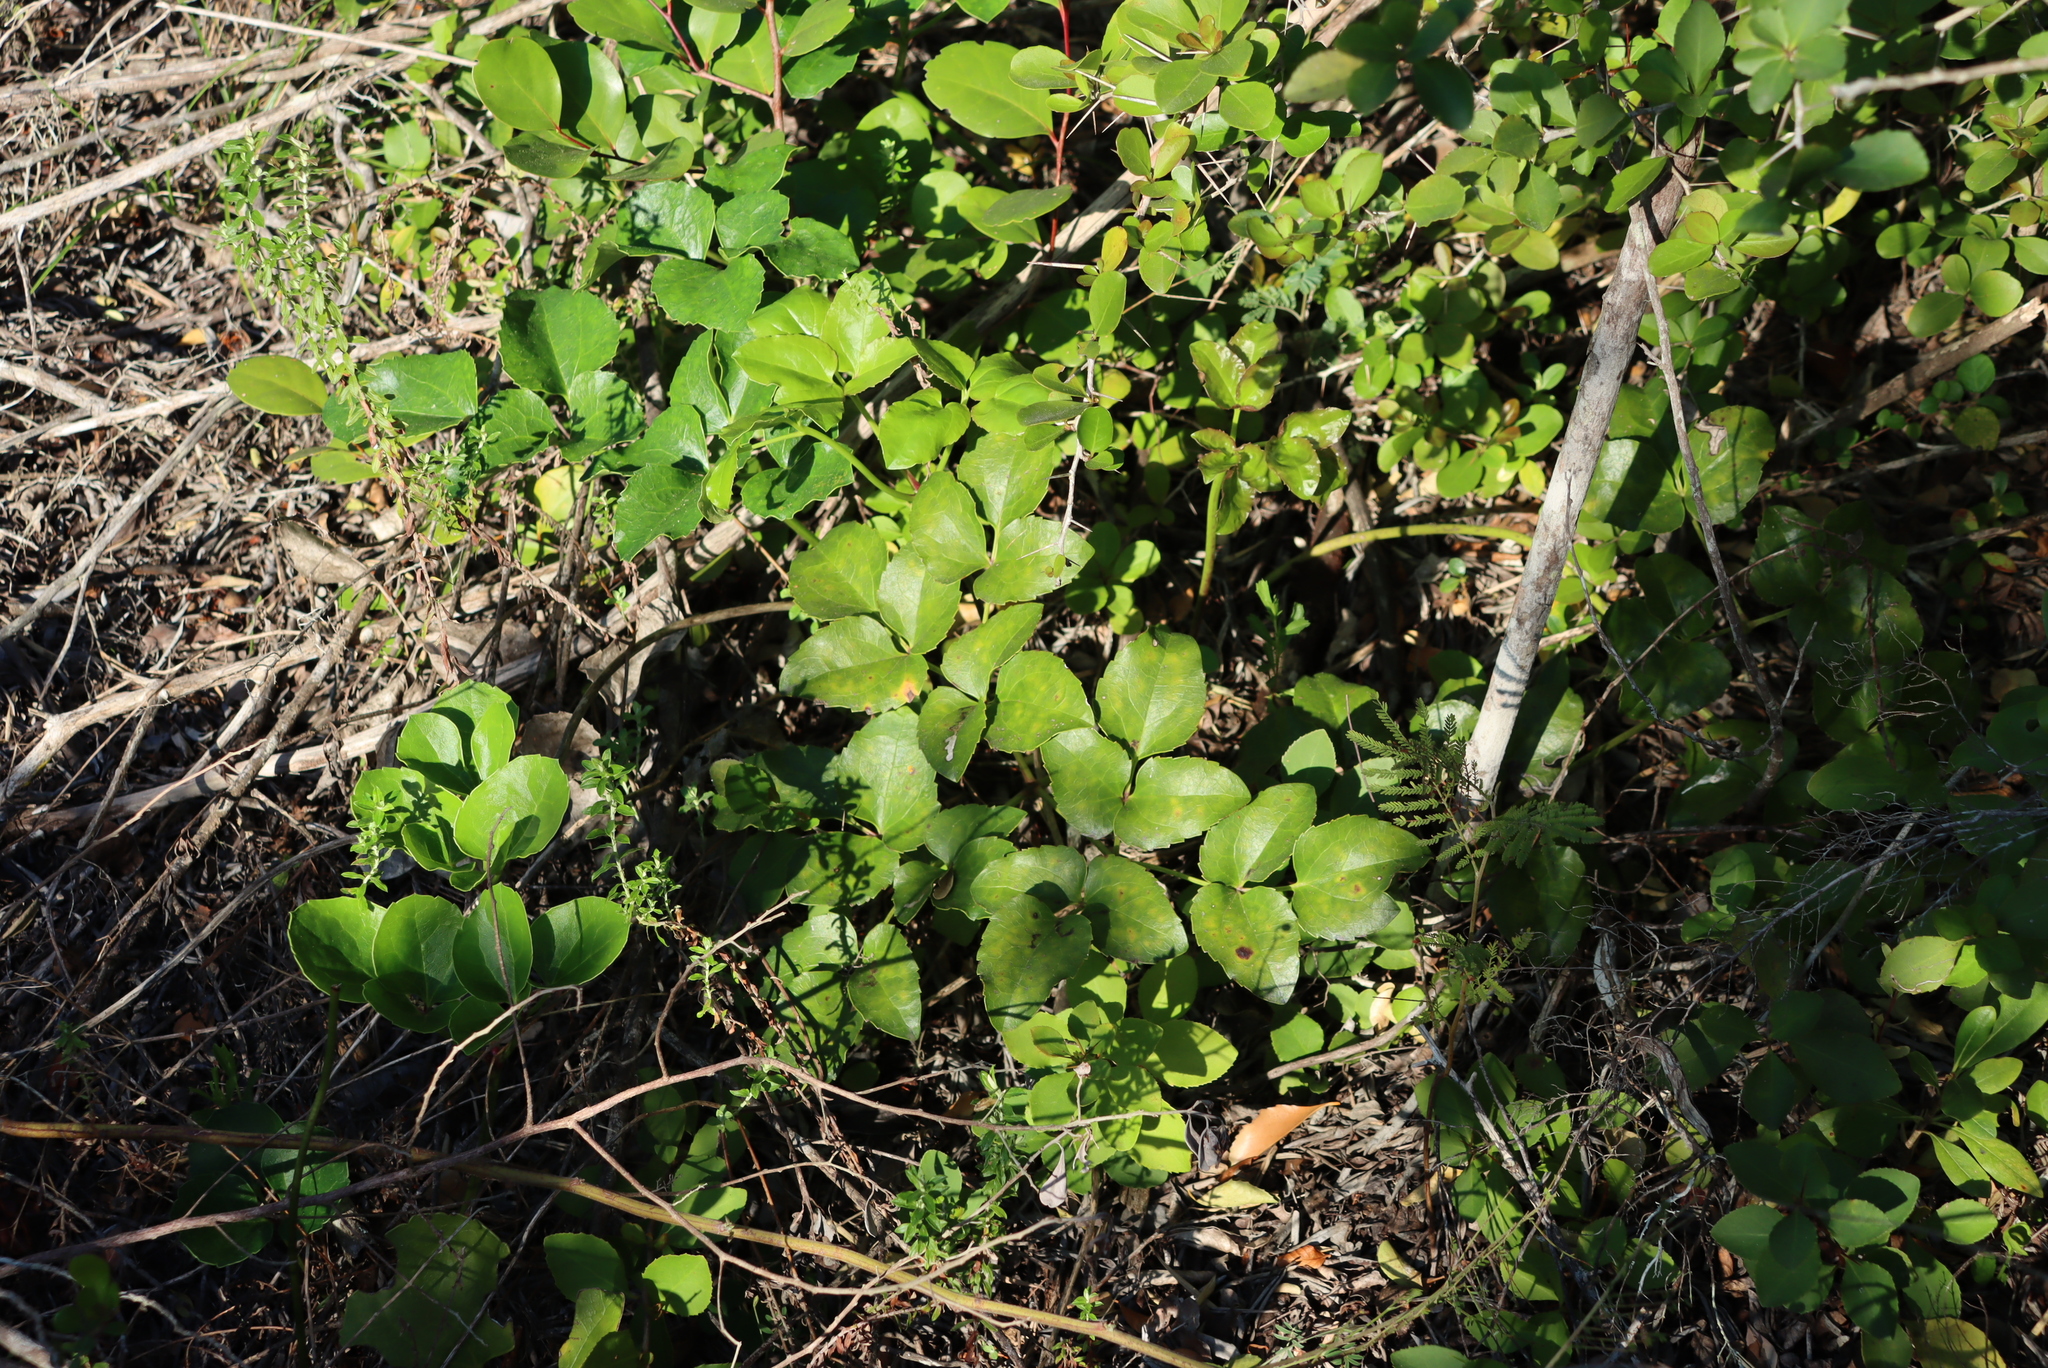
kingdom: Plantae
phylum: Tracheophyta
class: Magnoliopsida
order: Ranunculales
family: Ranunculaceae
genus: Knowltonia
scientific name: Knowltonia vesicatoria
